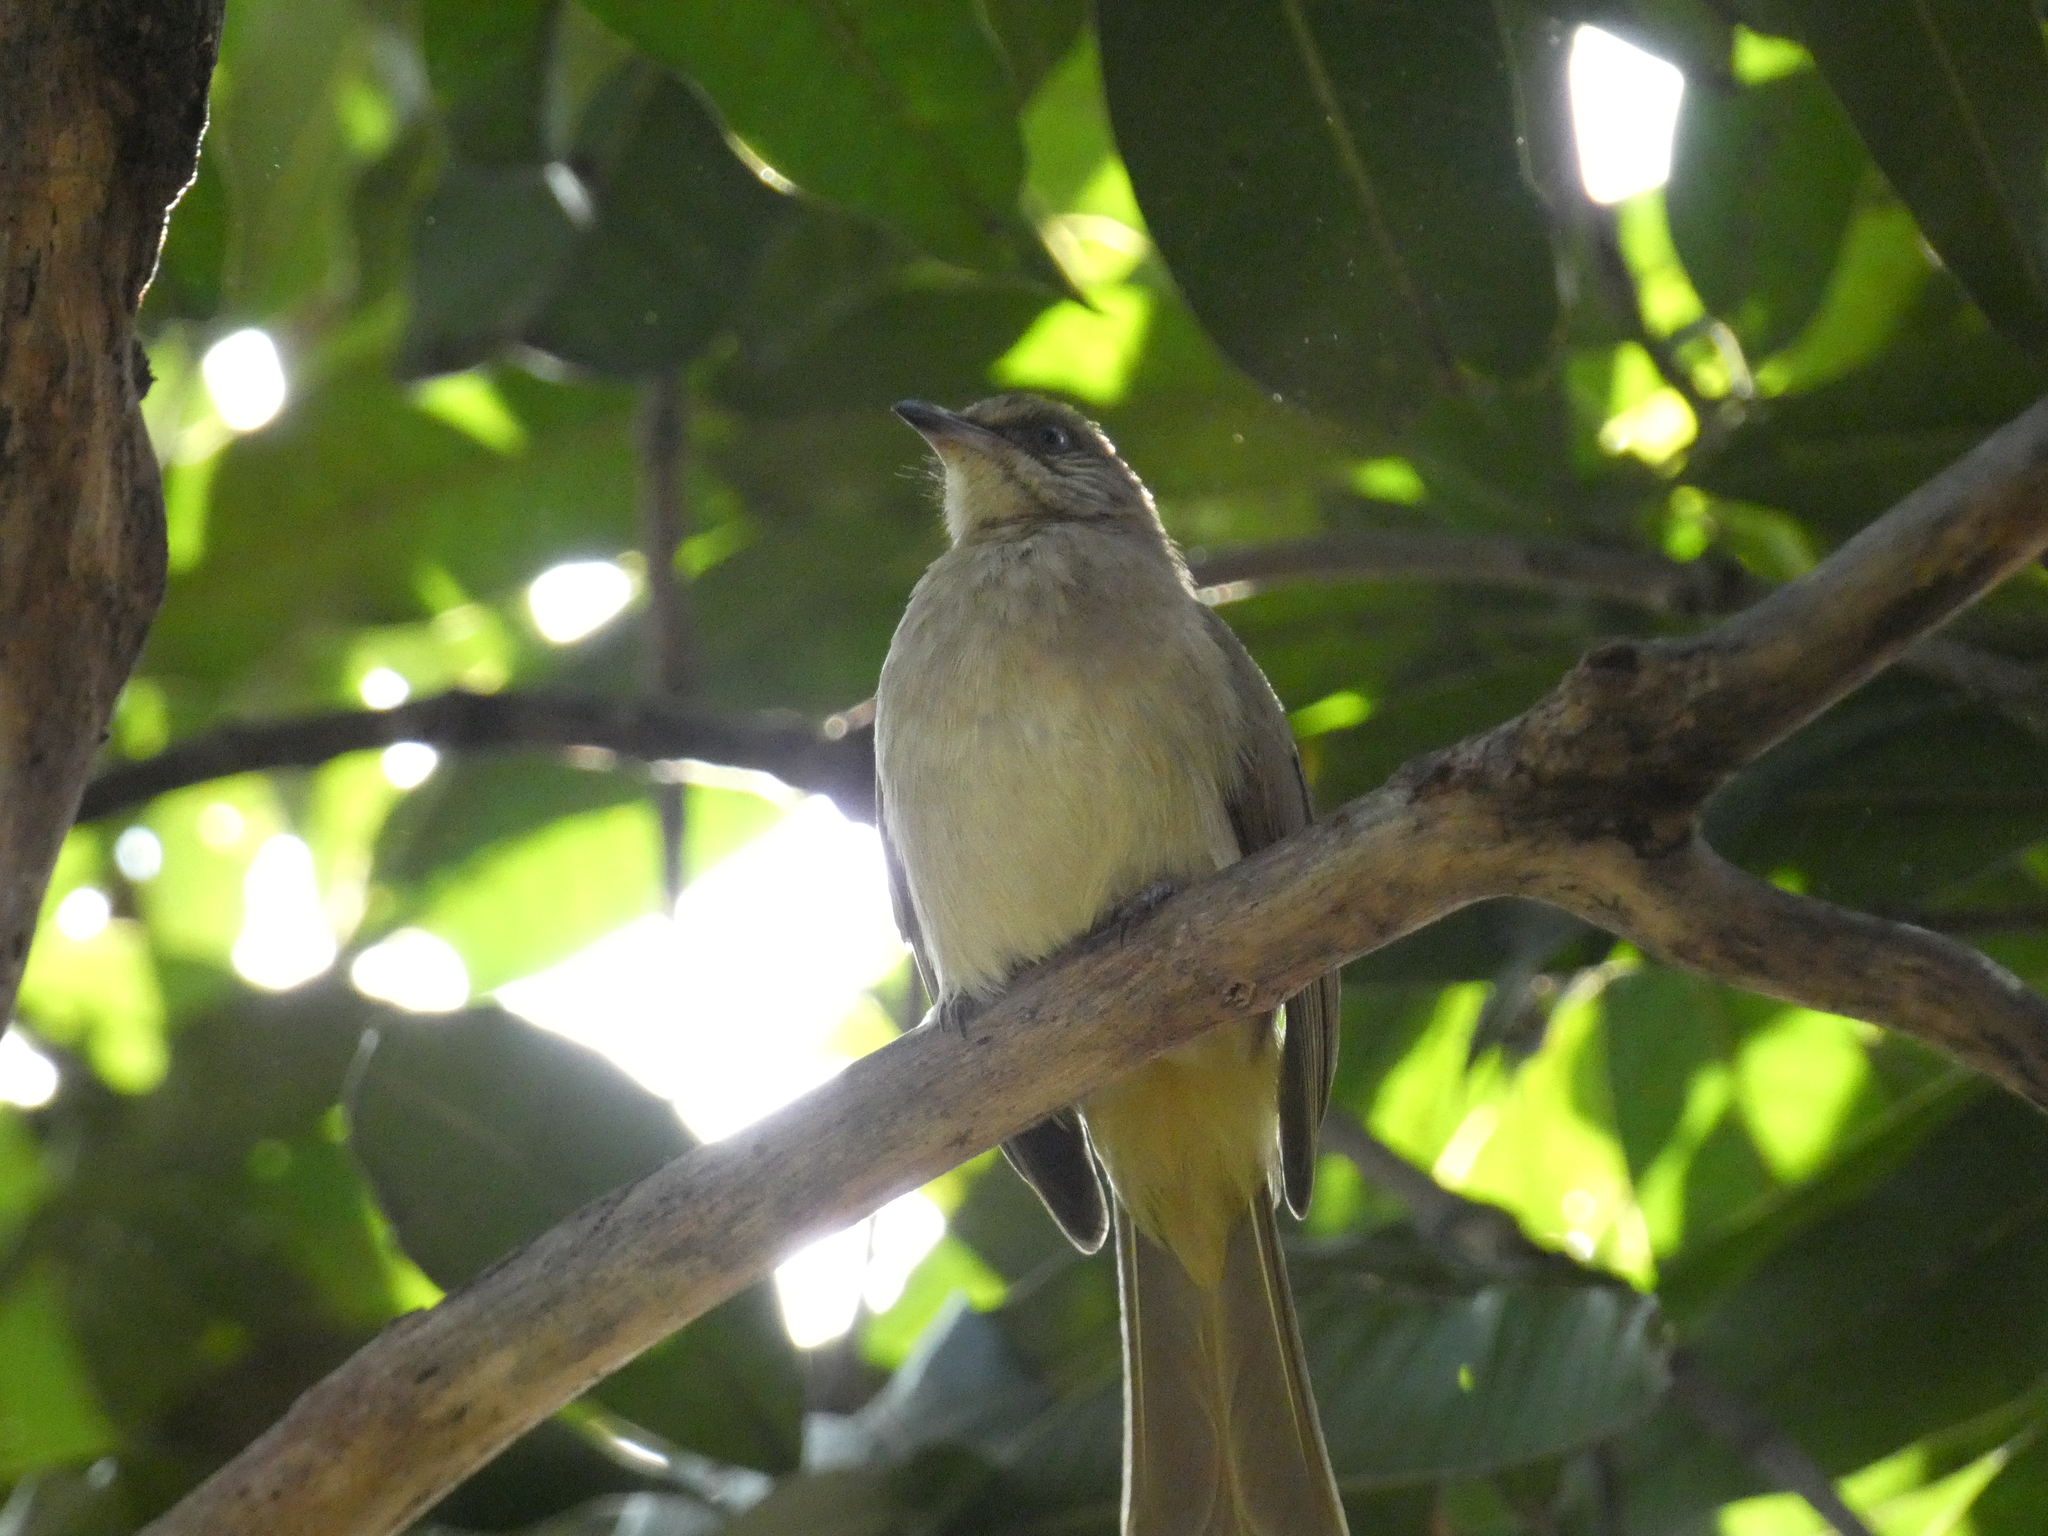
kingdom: Animalia
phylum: Chordata
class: Aves
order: Passeriformes
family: Pycnonotidae
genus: Pycnonotus
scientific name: Pycnonotus blanfordi
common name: Streak-eared bulbul
